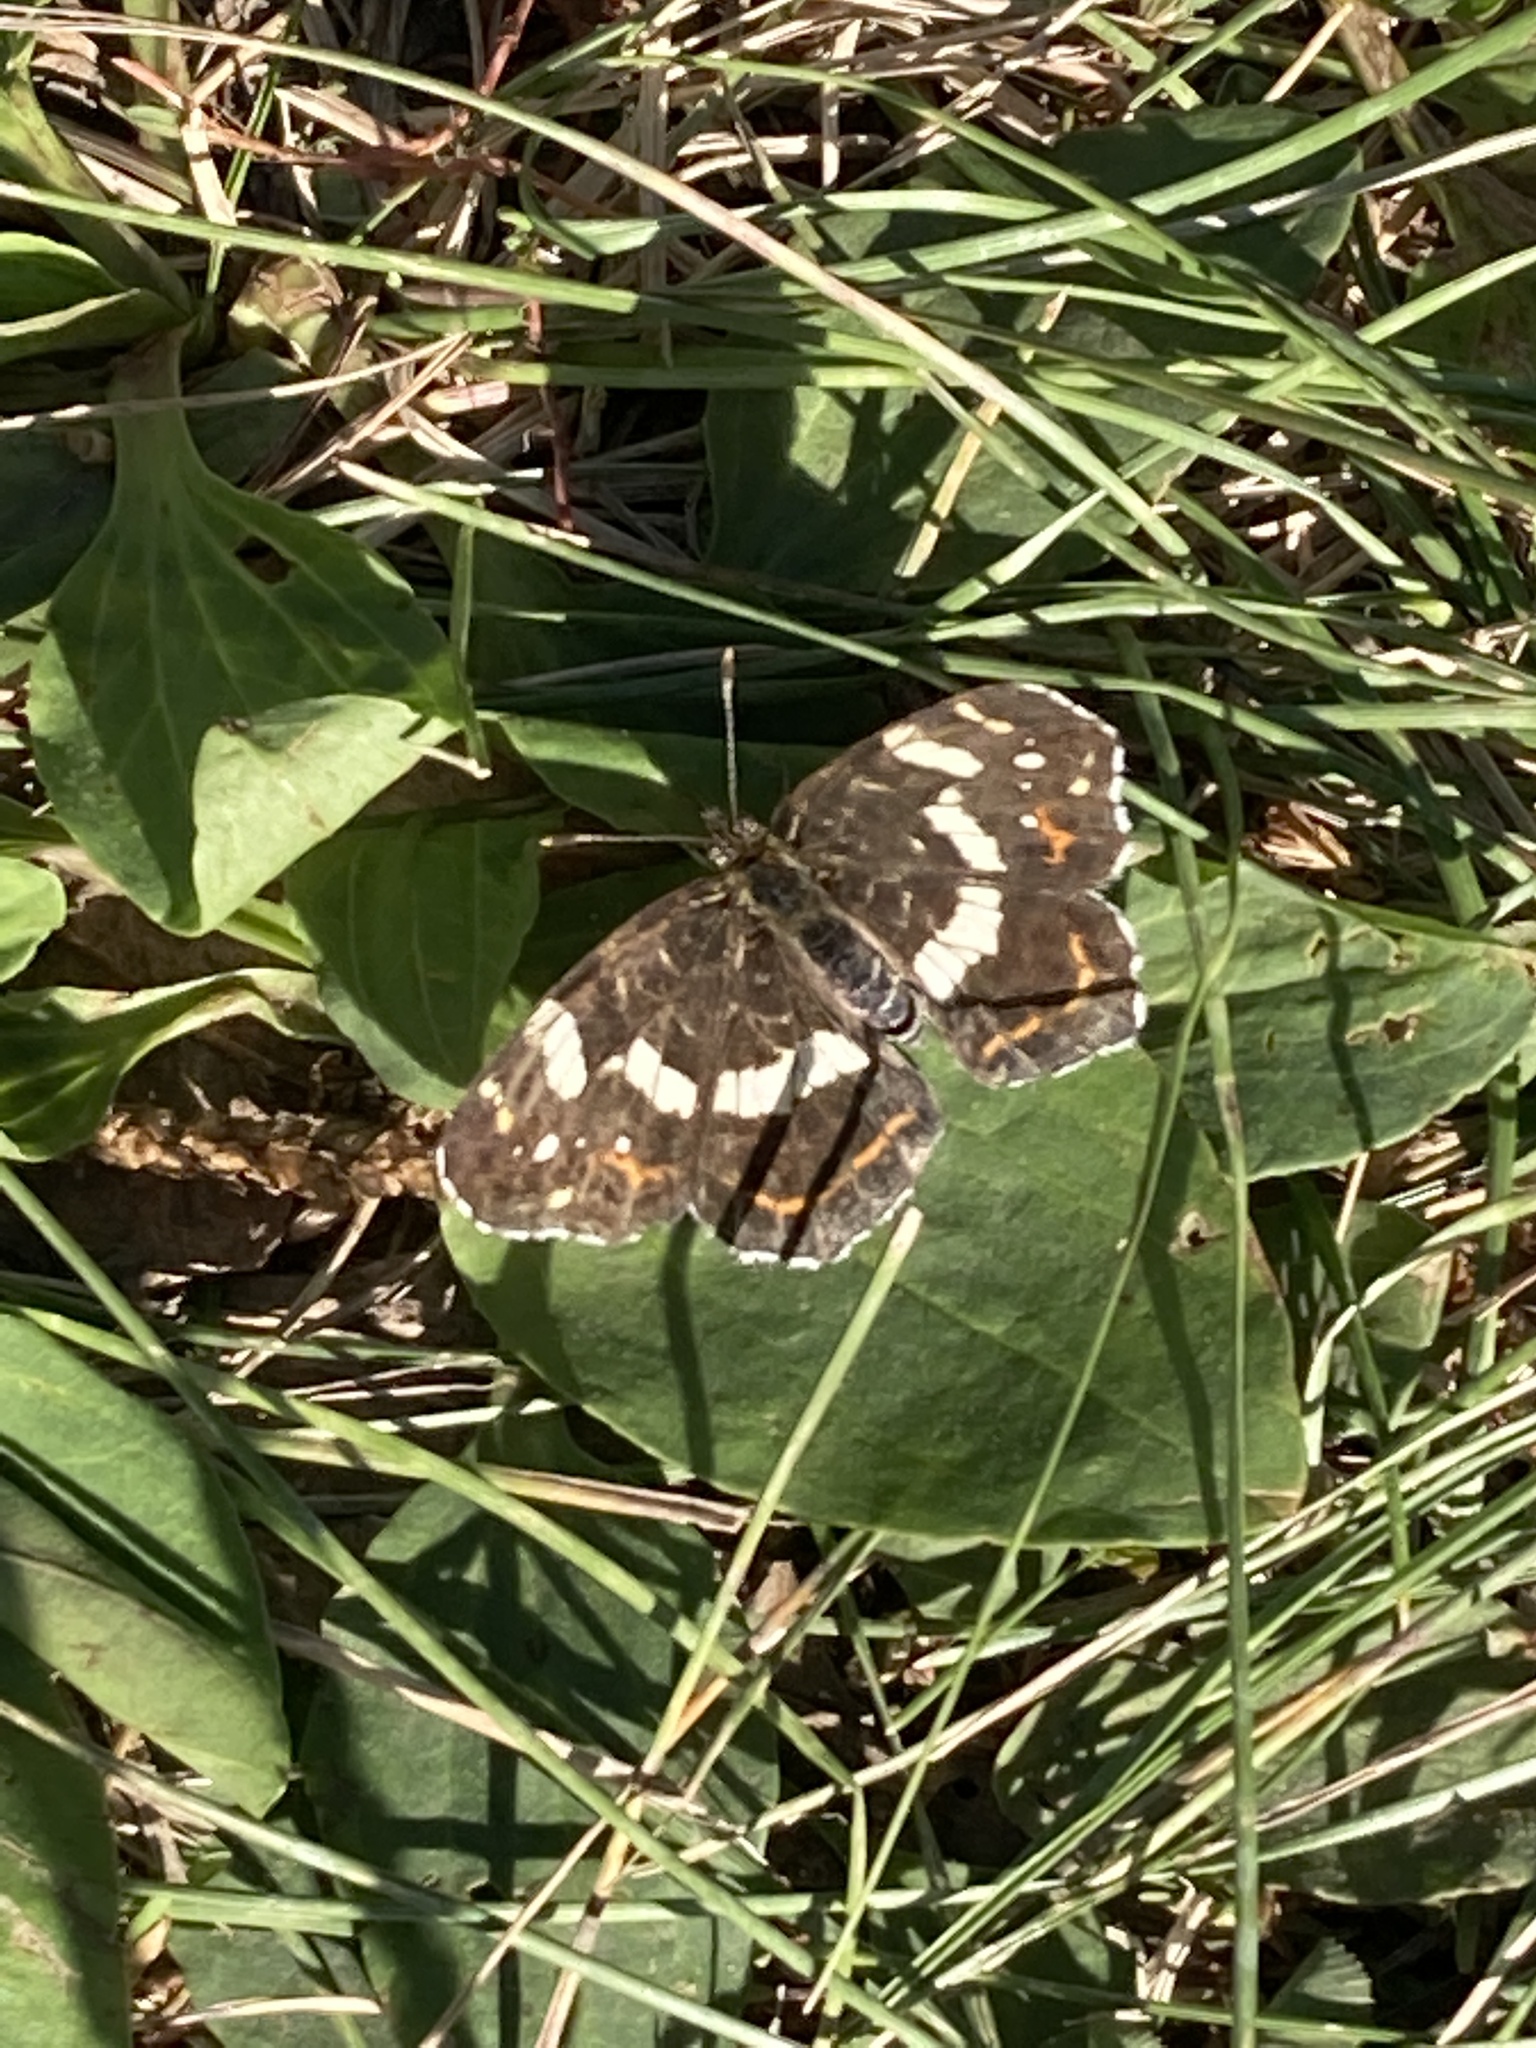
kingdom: Animalia
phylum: Arthropoda
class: Insecta
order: Lepidoptera
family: Nymphalidae
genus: Araschnia
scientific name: Araschnia levana
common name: Map butterfly
